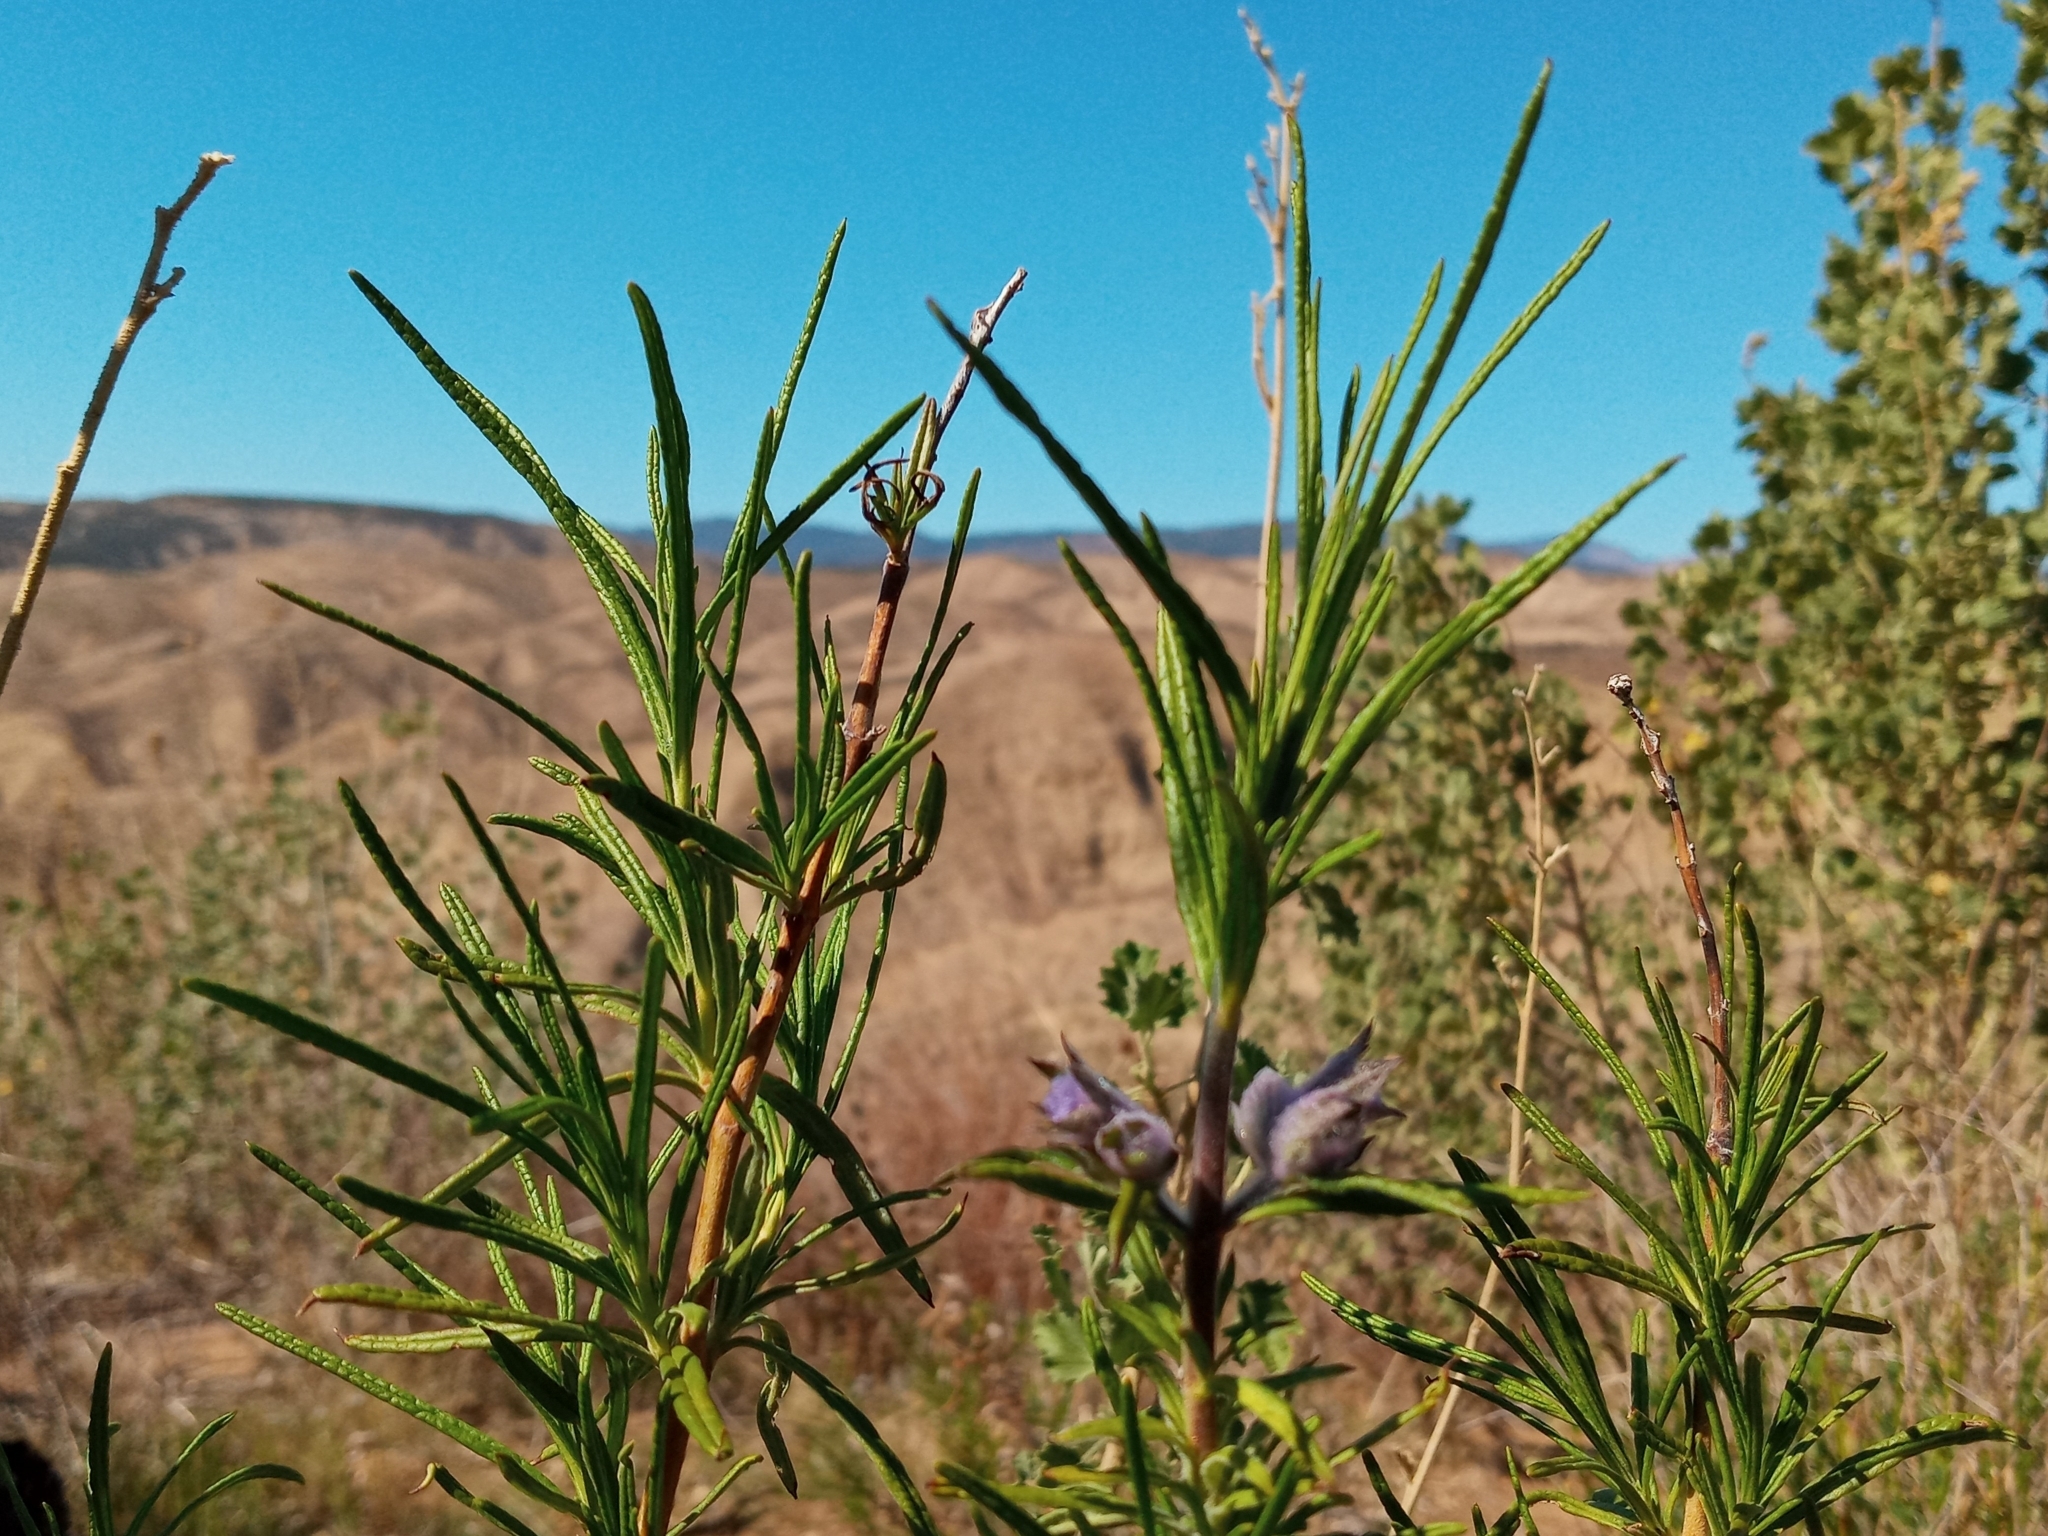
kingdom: Plantae
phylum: Tracheophyta
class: Magnoliopsida
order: Lamiales
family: Lamiaceae
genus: Trichostema
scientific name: Trichostema lanatum
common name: Woolly bluecurls
